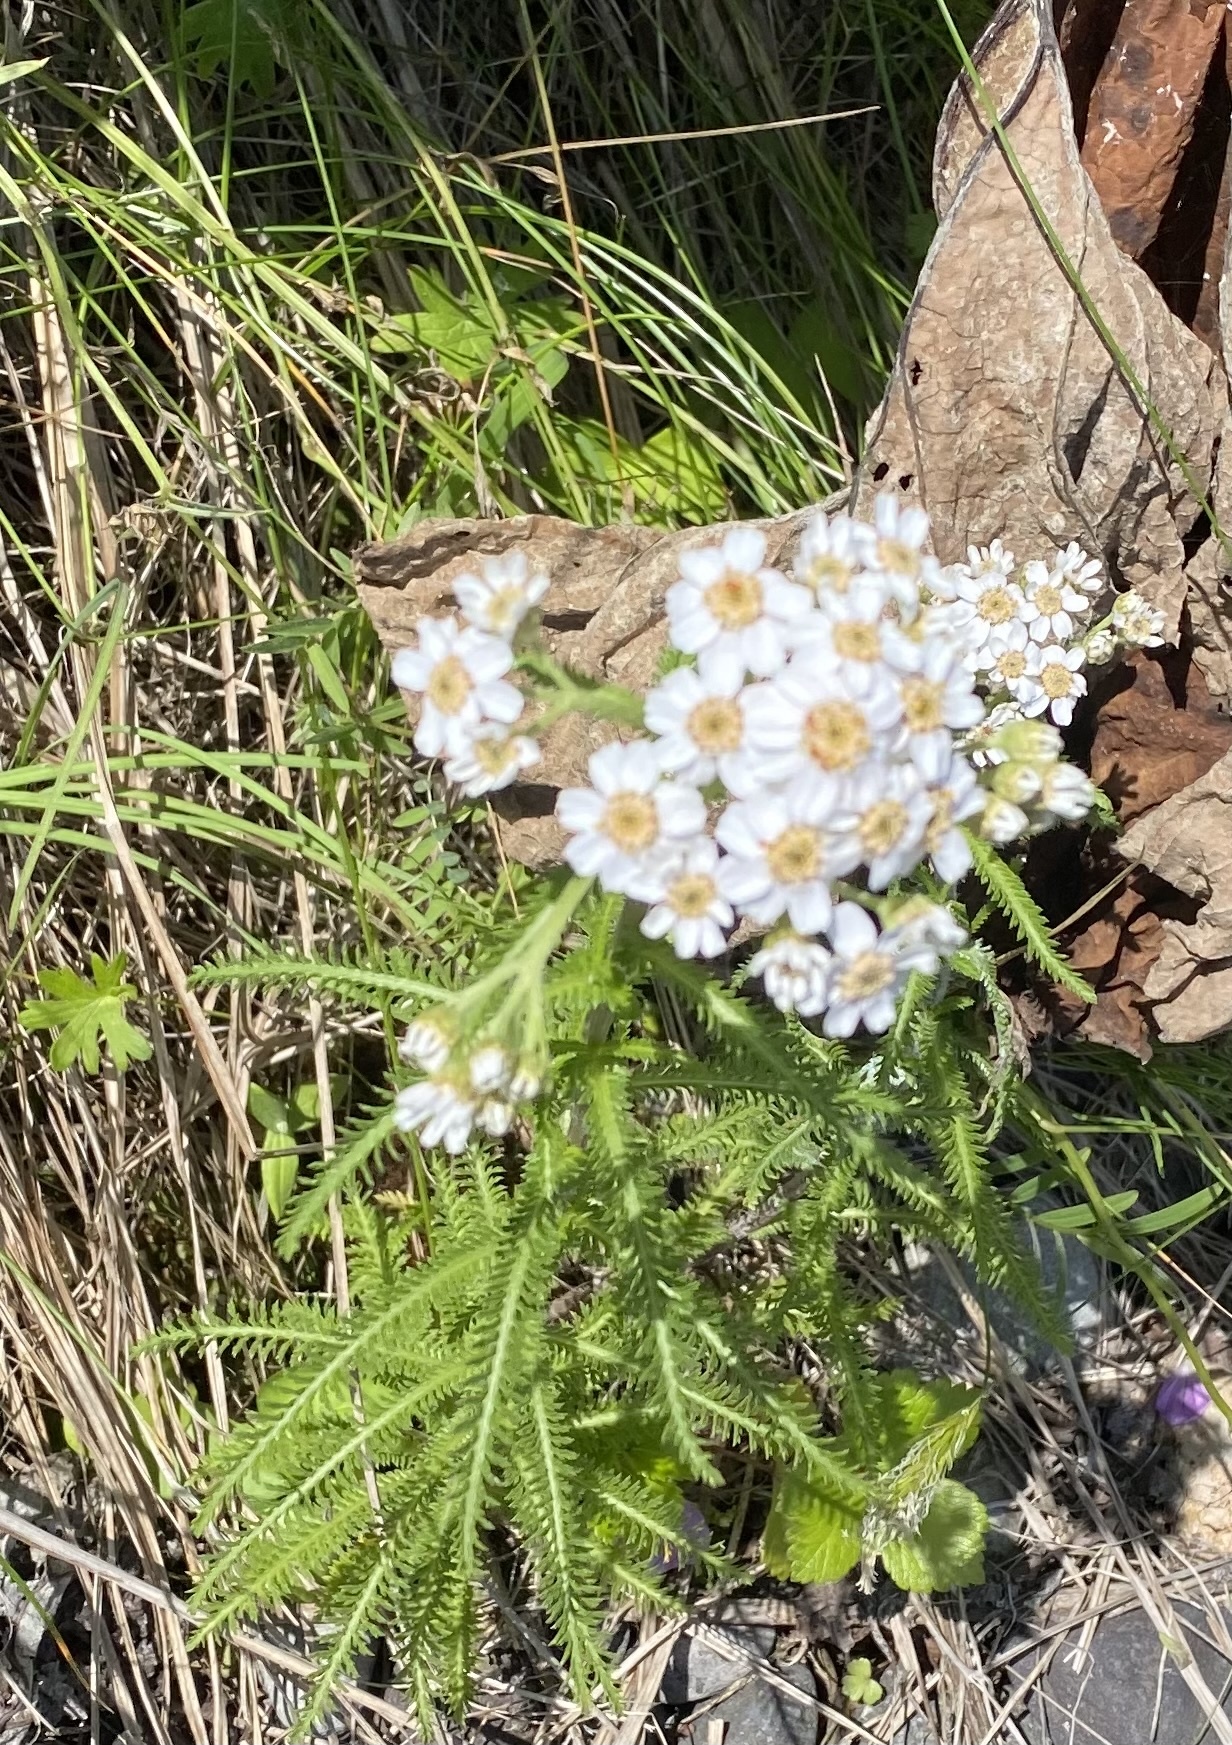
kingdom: Plantae
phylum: Tracheophyta
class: Magnoliopsida
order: Asterales
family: Asteraceae
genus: Achillea
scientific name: Achillea alpina
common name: Siberian yarrow
